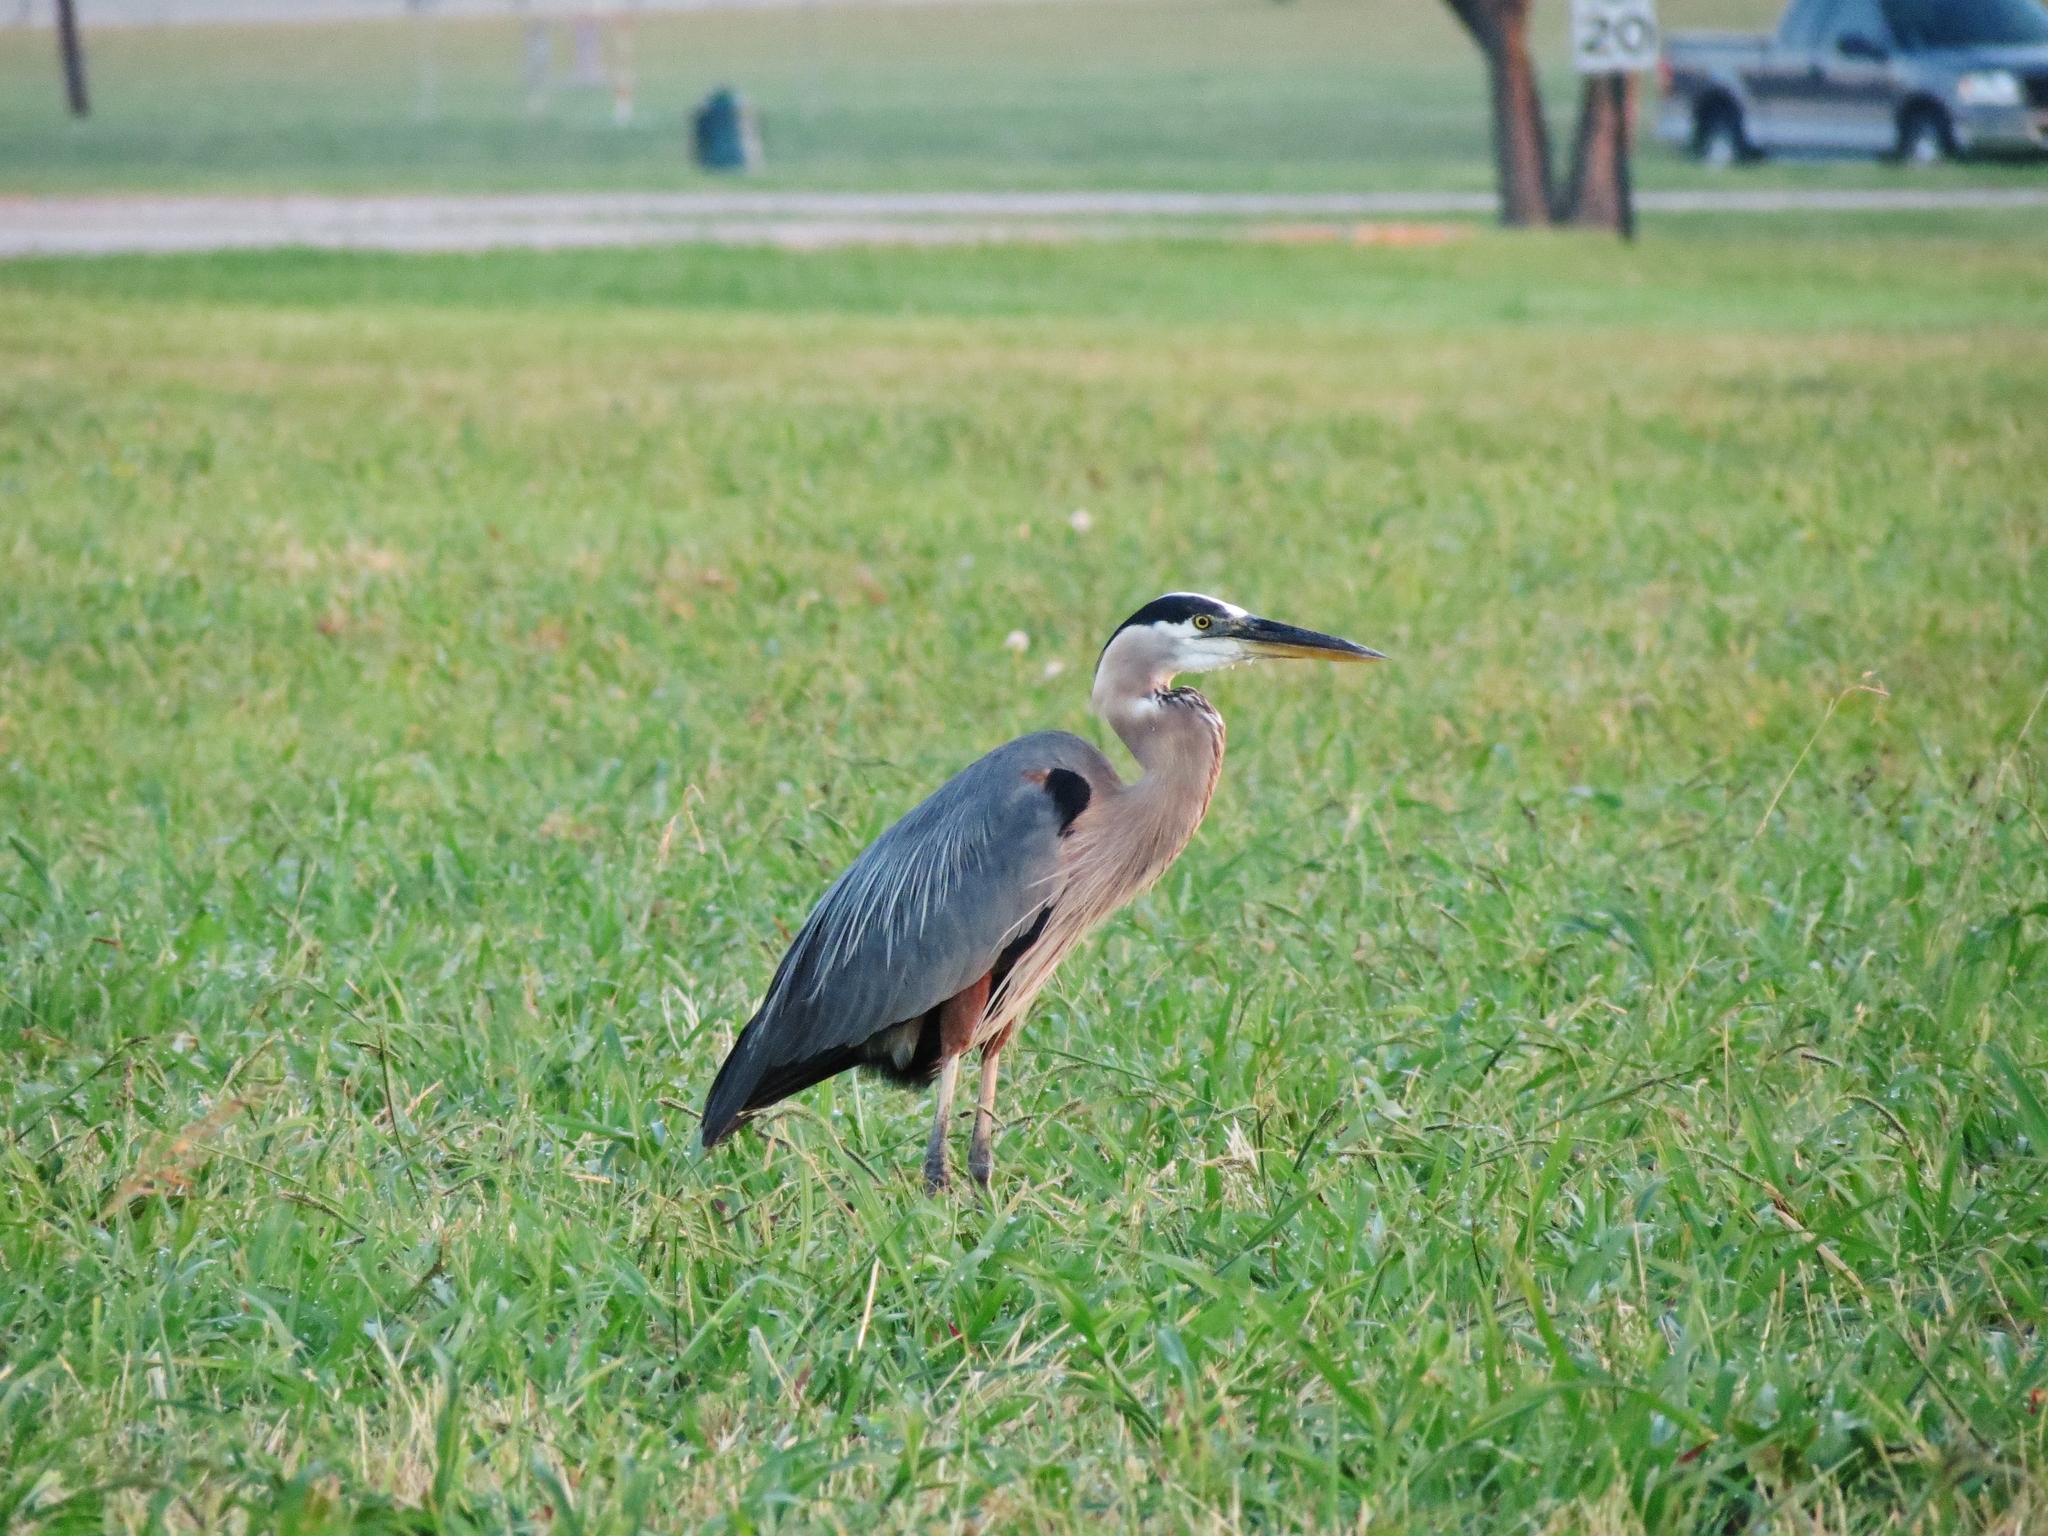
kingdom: Animalia
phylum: Chordata
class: Aves
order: Pelecaniformes
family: Ardeidae
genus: Ardea
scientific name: Ardea herodias
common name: Great blue heron
